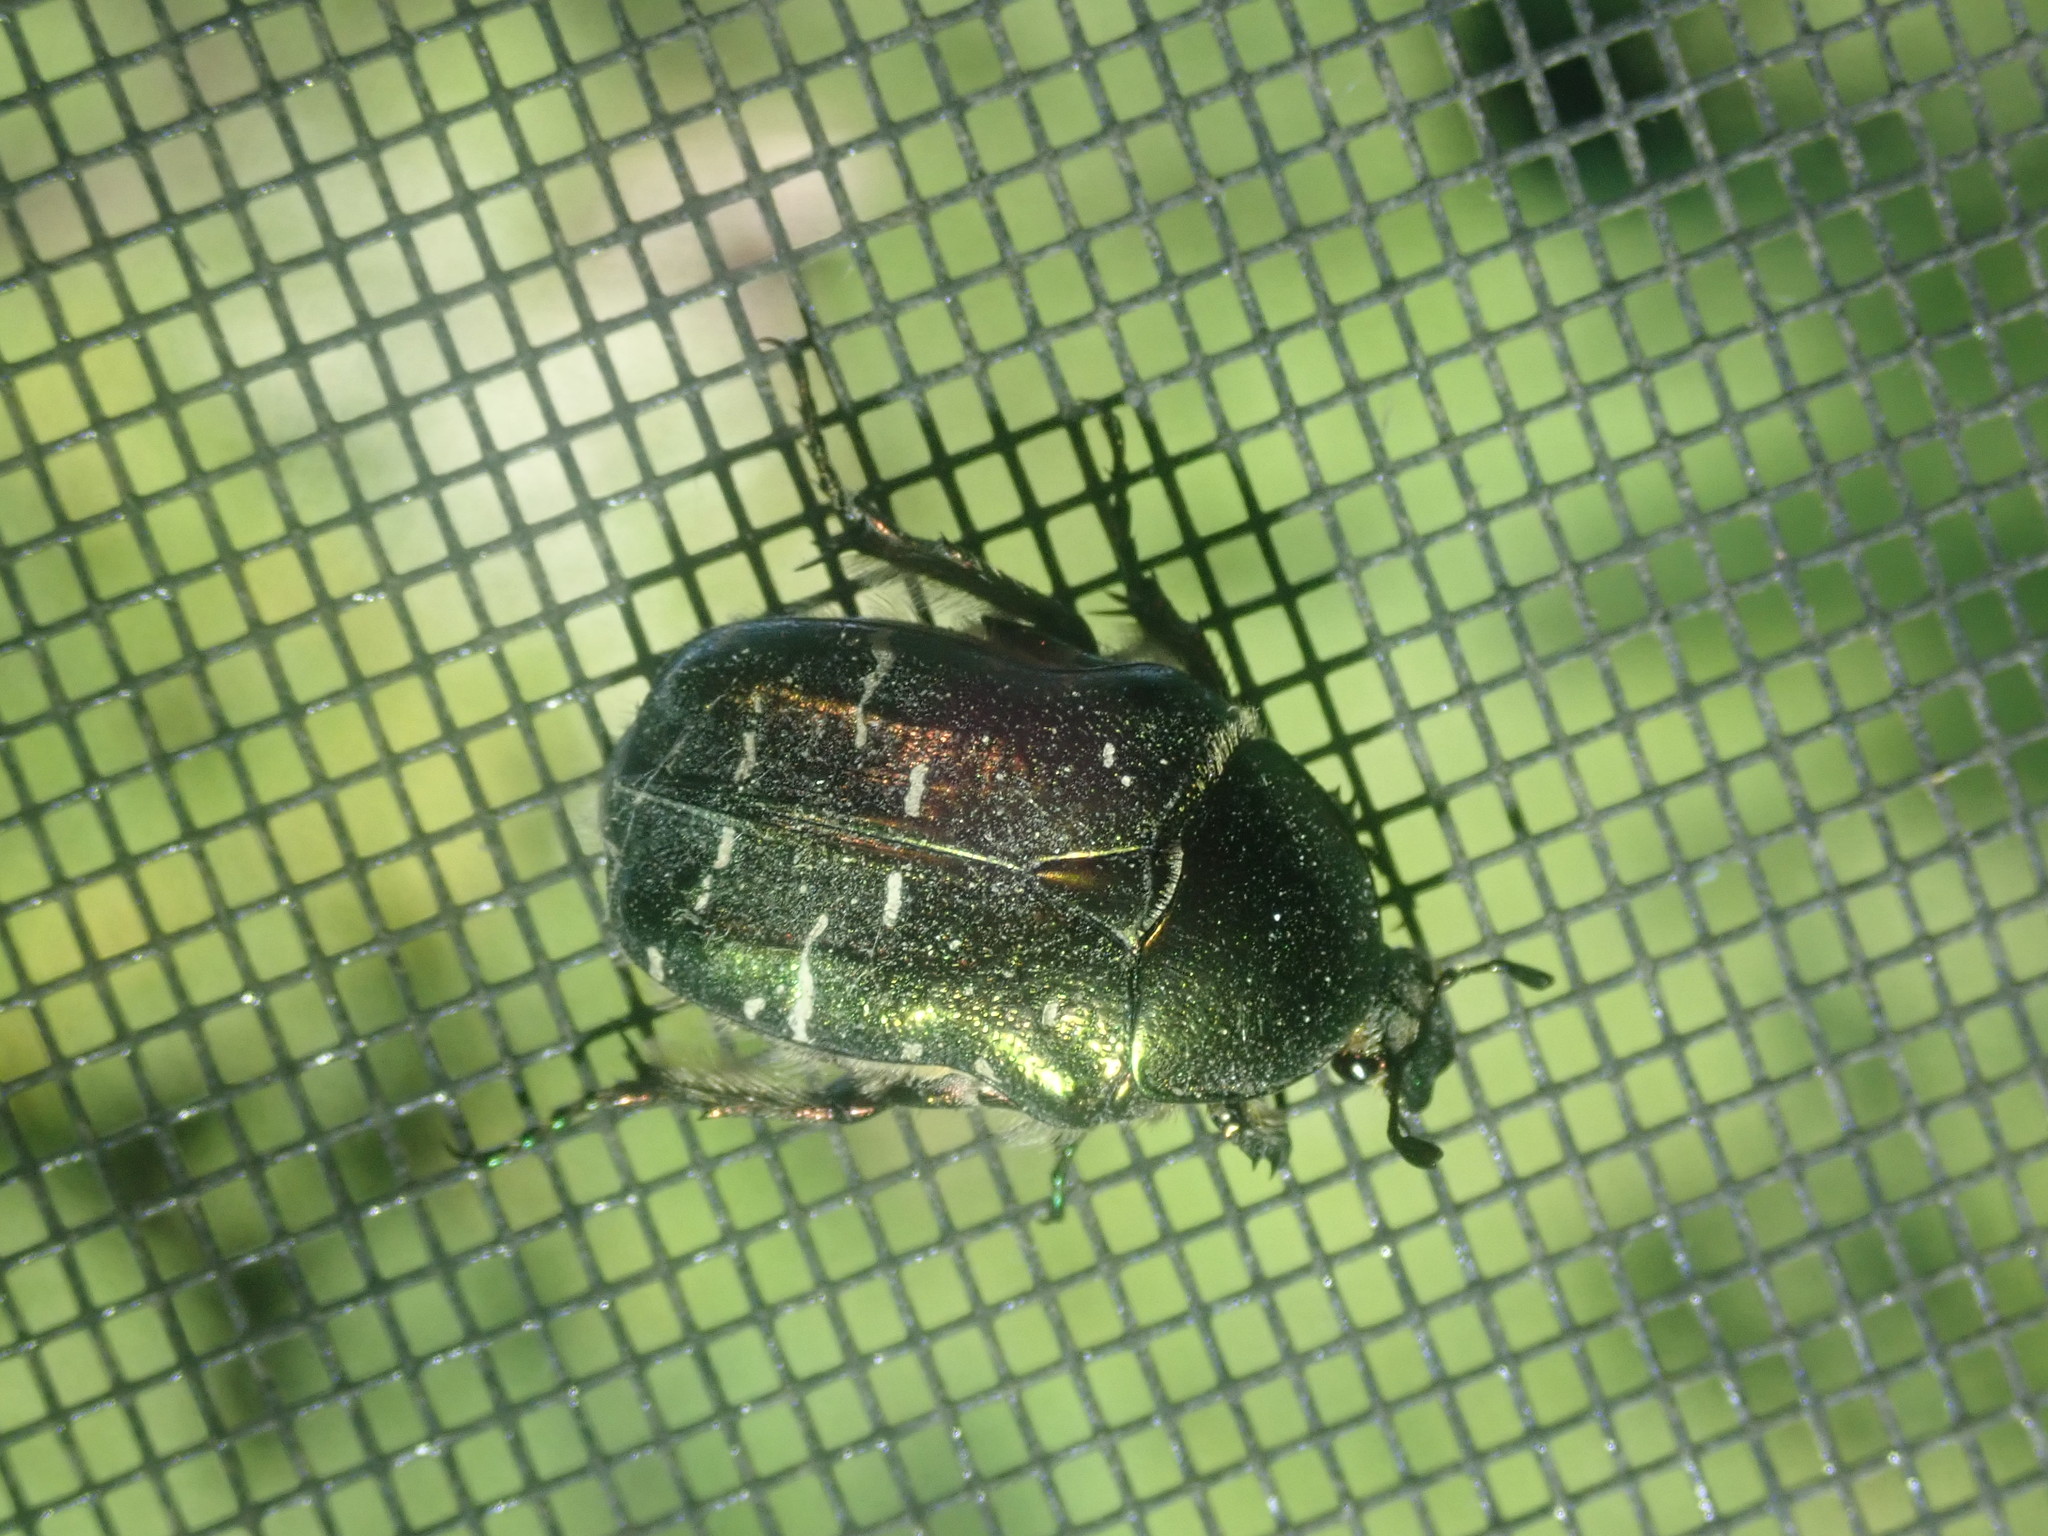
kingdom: Animalia
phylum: Arthropoda
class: Insecta
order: Coleoptera
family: Scarabaeidae
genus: Cetonia
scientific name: Cetonia aurata
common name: Rose chafer
